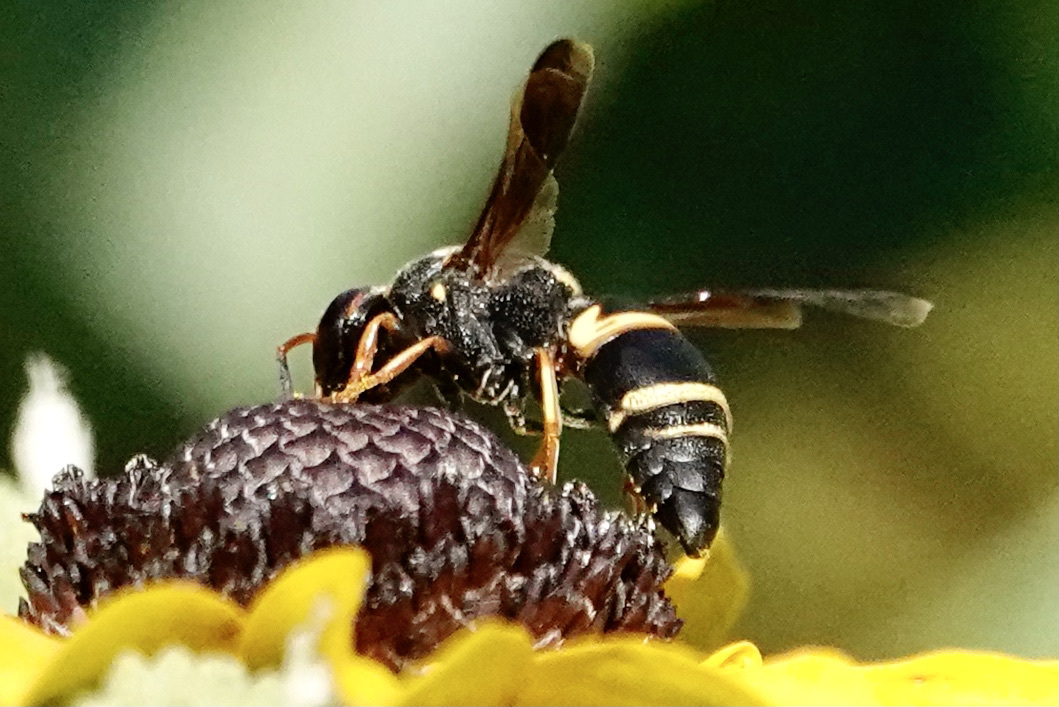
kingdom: Animalia
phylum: Arthropoda
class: Insecta
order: Hymenoptera
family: Eumenidae
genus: Euodynerus
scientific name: Euodynerus hidalgo
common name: Wasp
